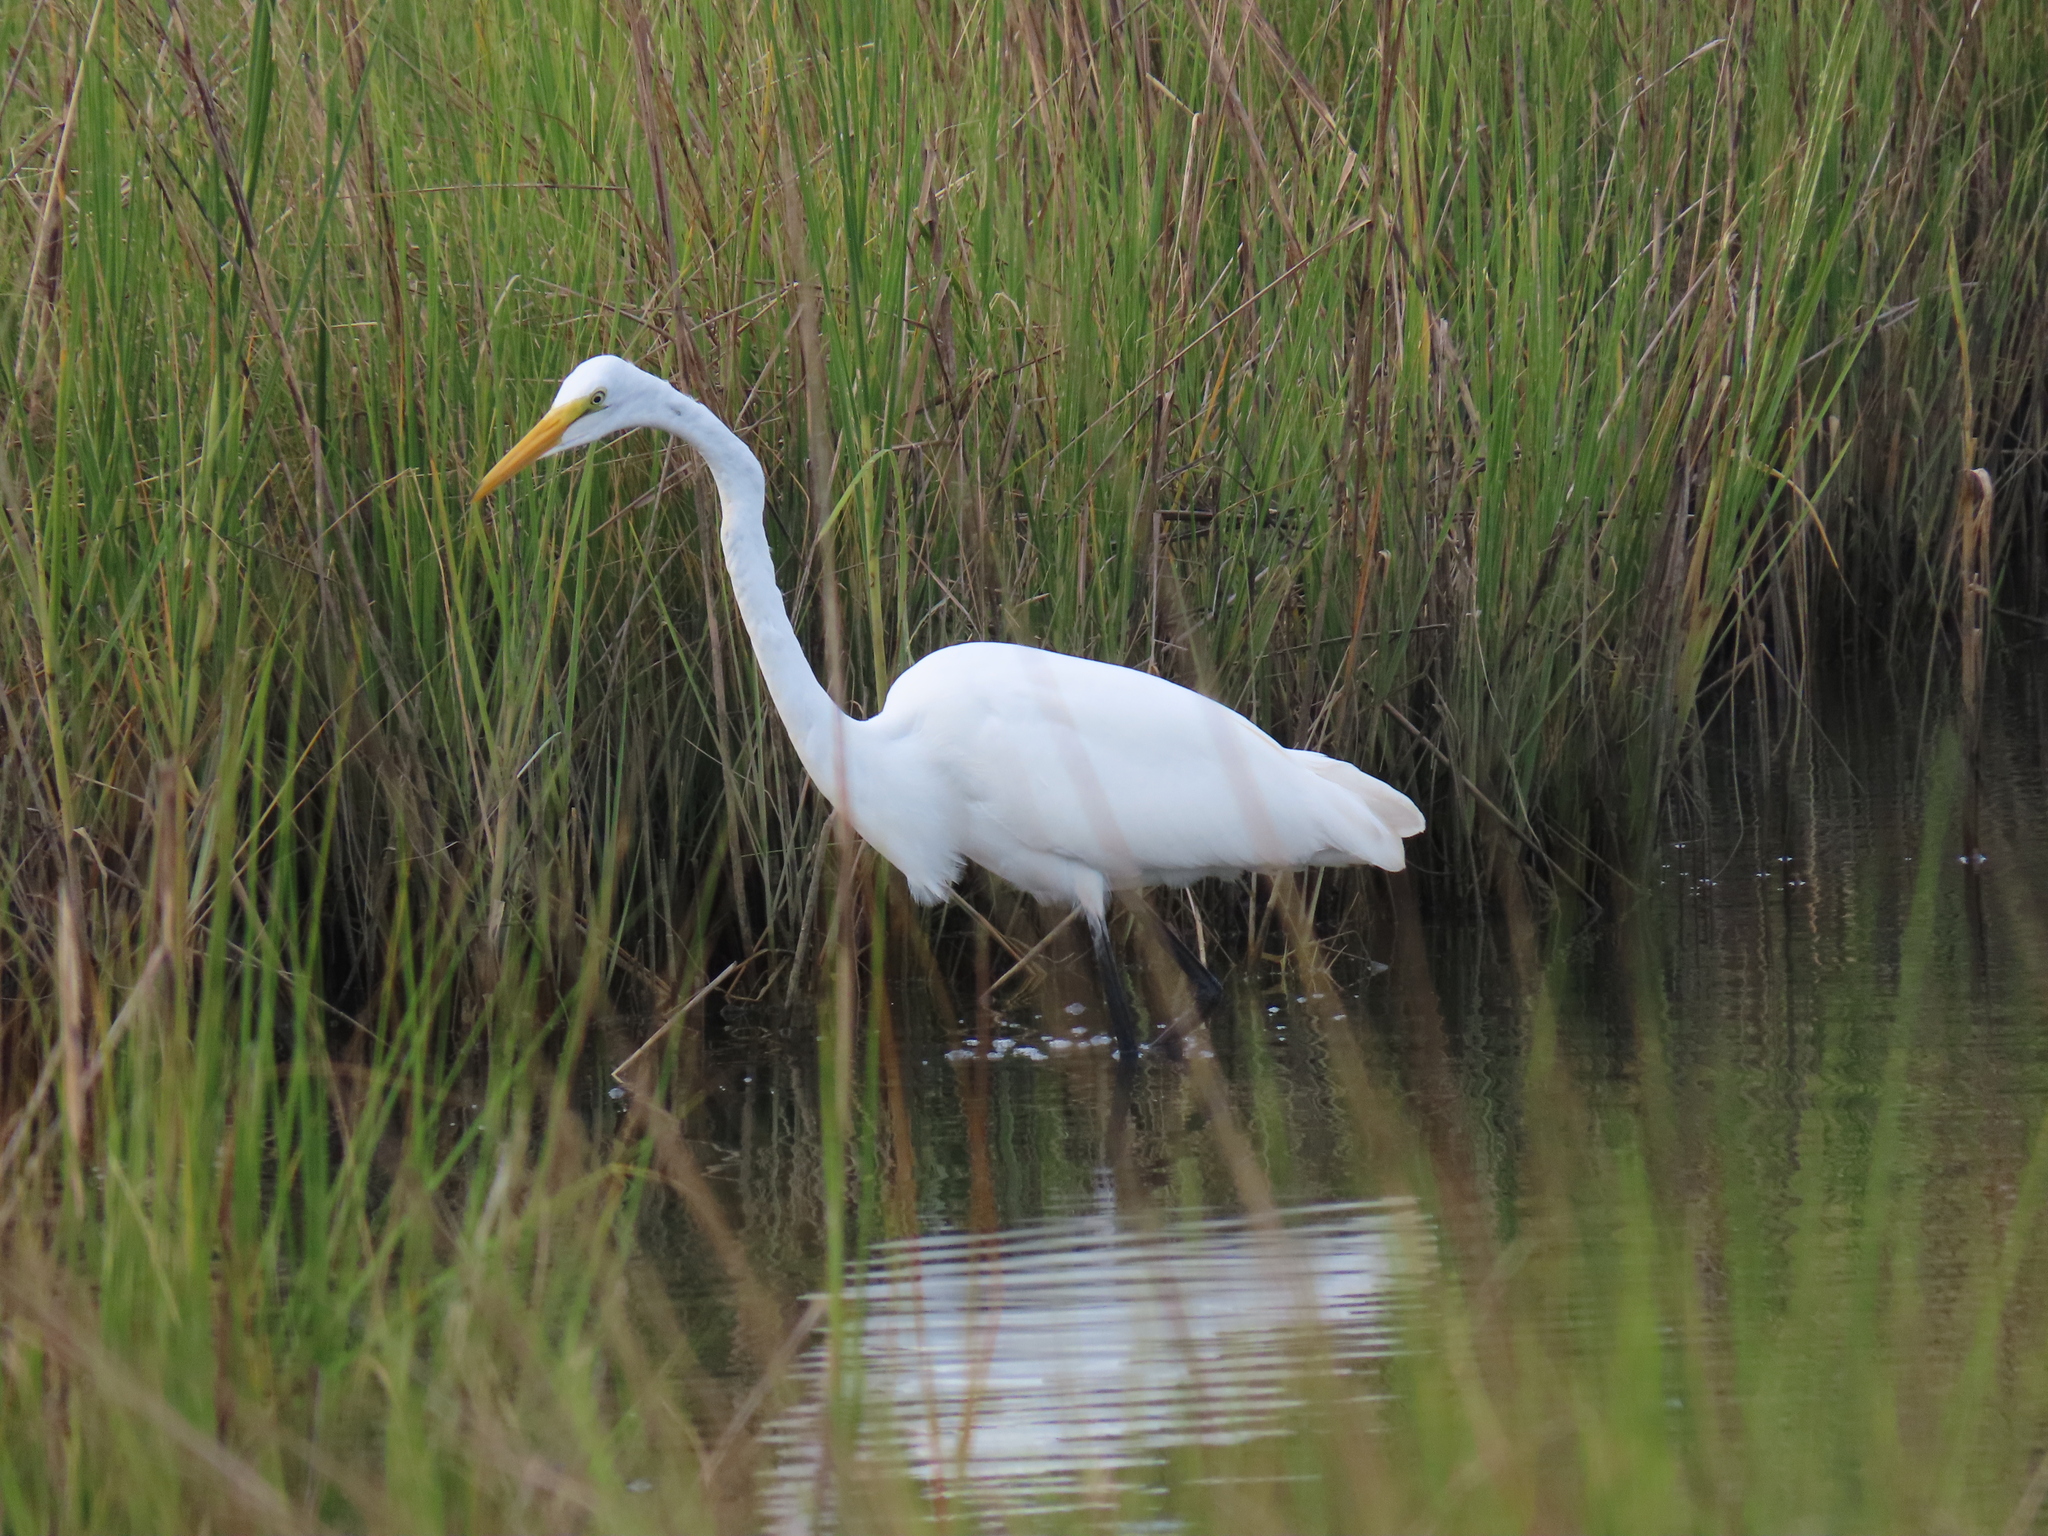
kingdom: Animalia
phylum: Chordata
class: Aves
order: Pelecaniformes
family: Ardeidae
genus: Ardea
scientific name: Ardea alba
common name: Great egret
